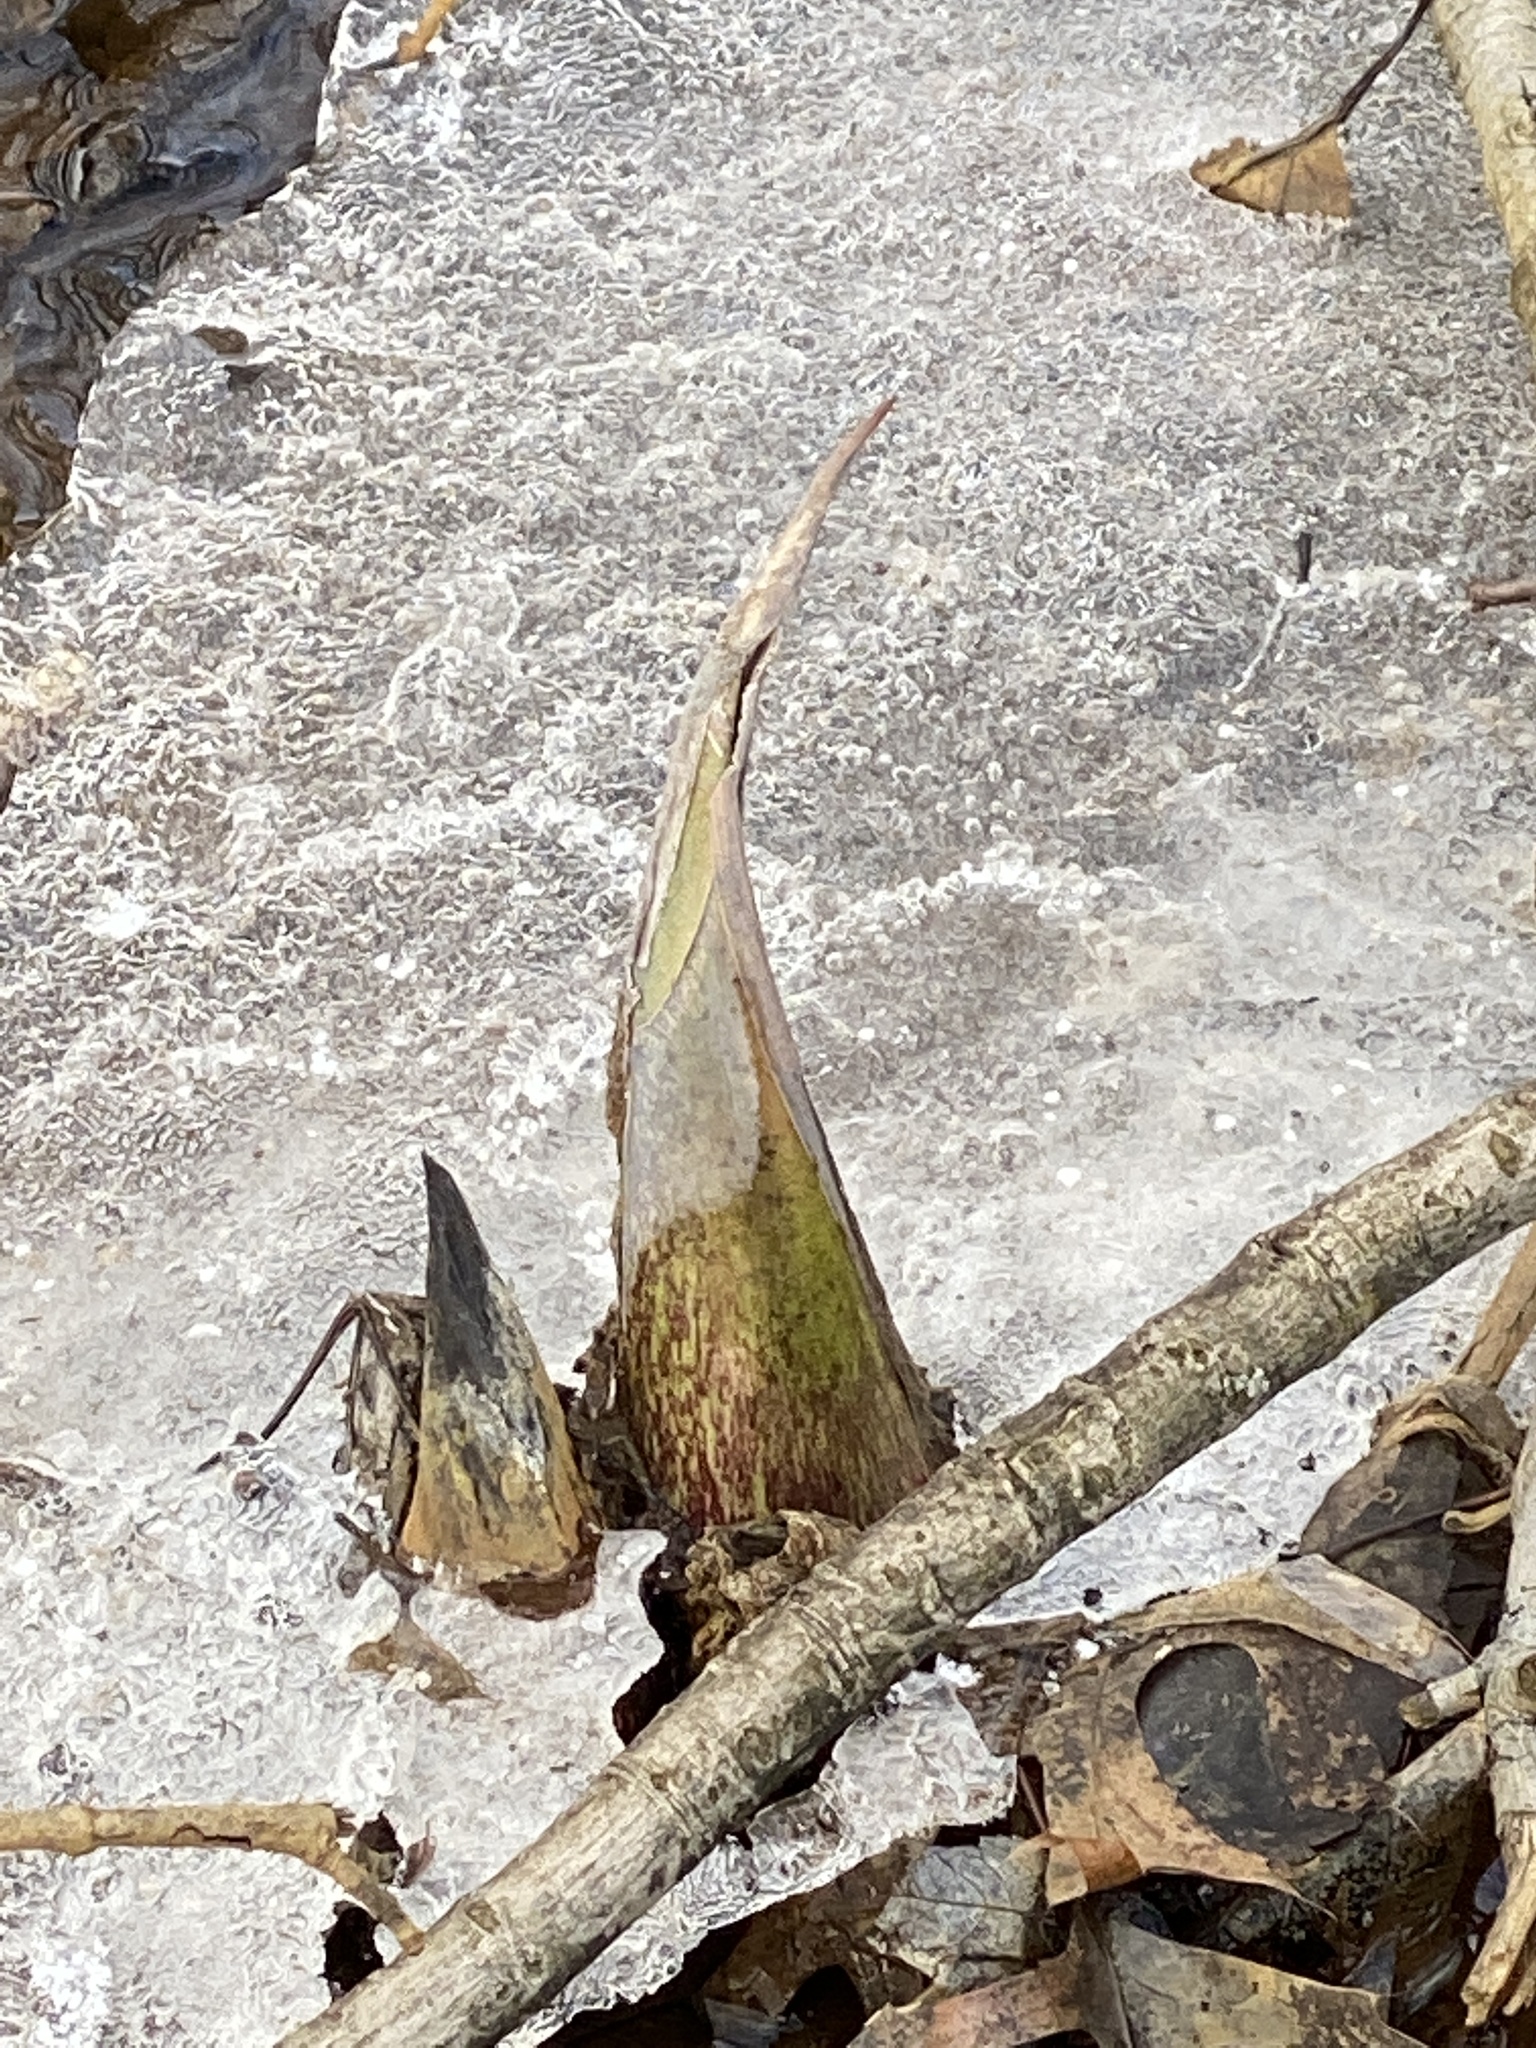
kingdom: Plantae
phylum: Tracheophyta
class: Liliopsida
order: Alismatales
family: Araceae
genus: Symplocarpus
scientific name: Symplocarpus foetidus
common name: Eastern skunk cabbage
